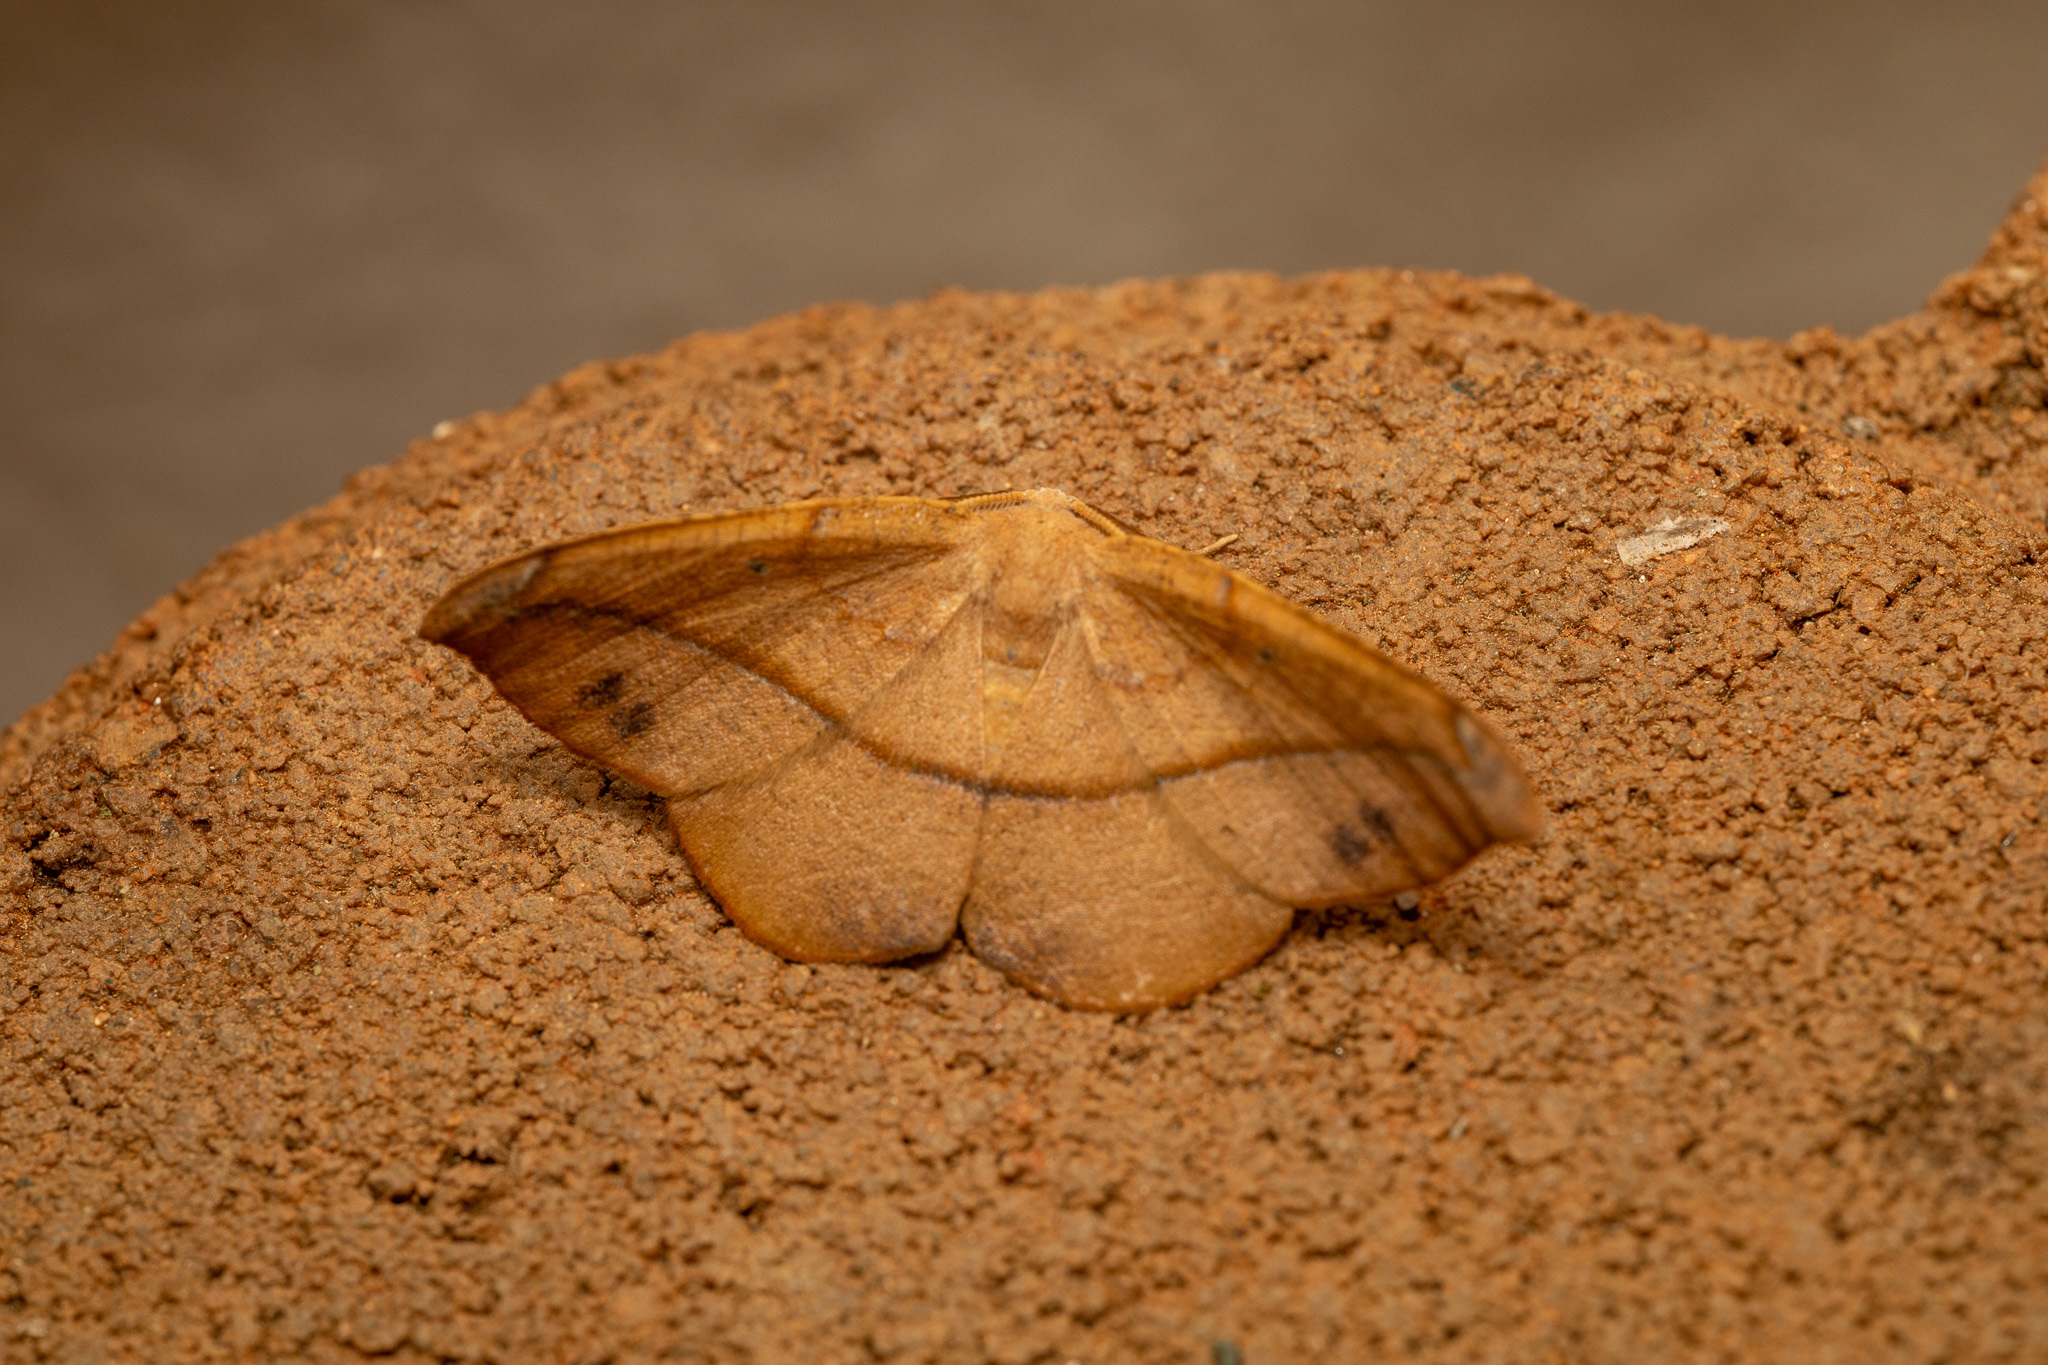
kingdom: Animalia
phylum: Arthropoda
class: Insecta
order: Lepidoptera
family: Geometridae
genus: Patalene
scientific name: Patalene olyzonaria
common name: Juniper geometer moth
